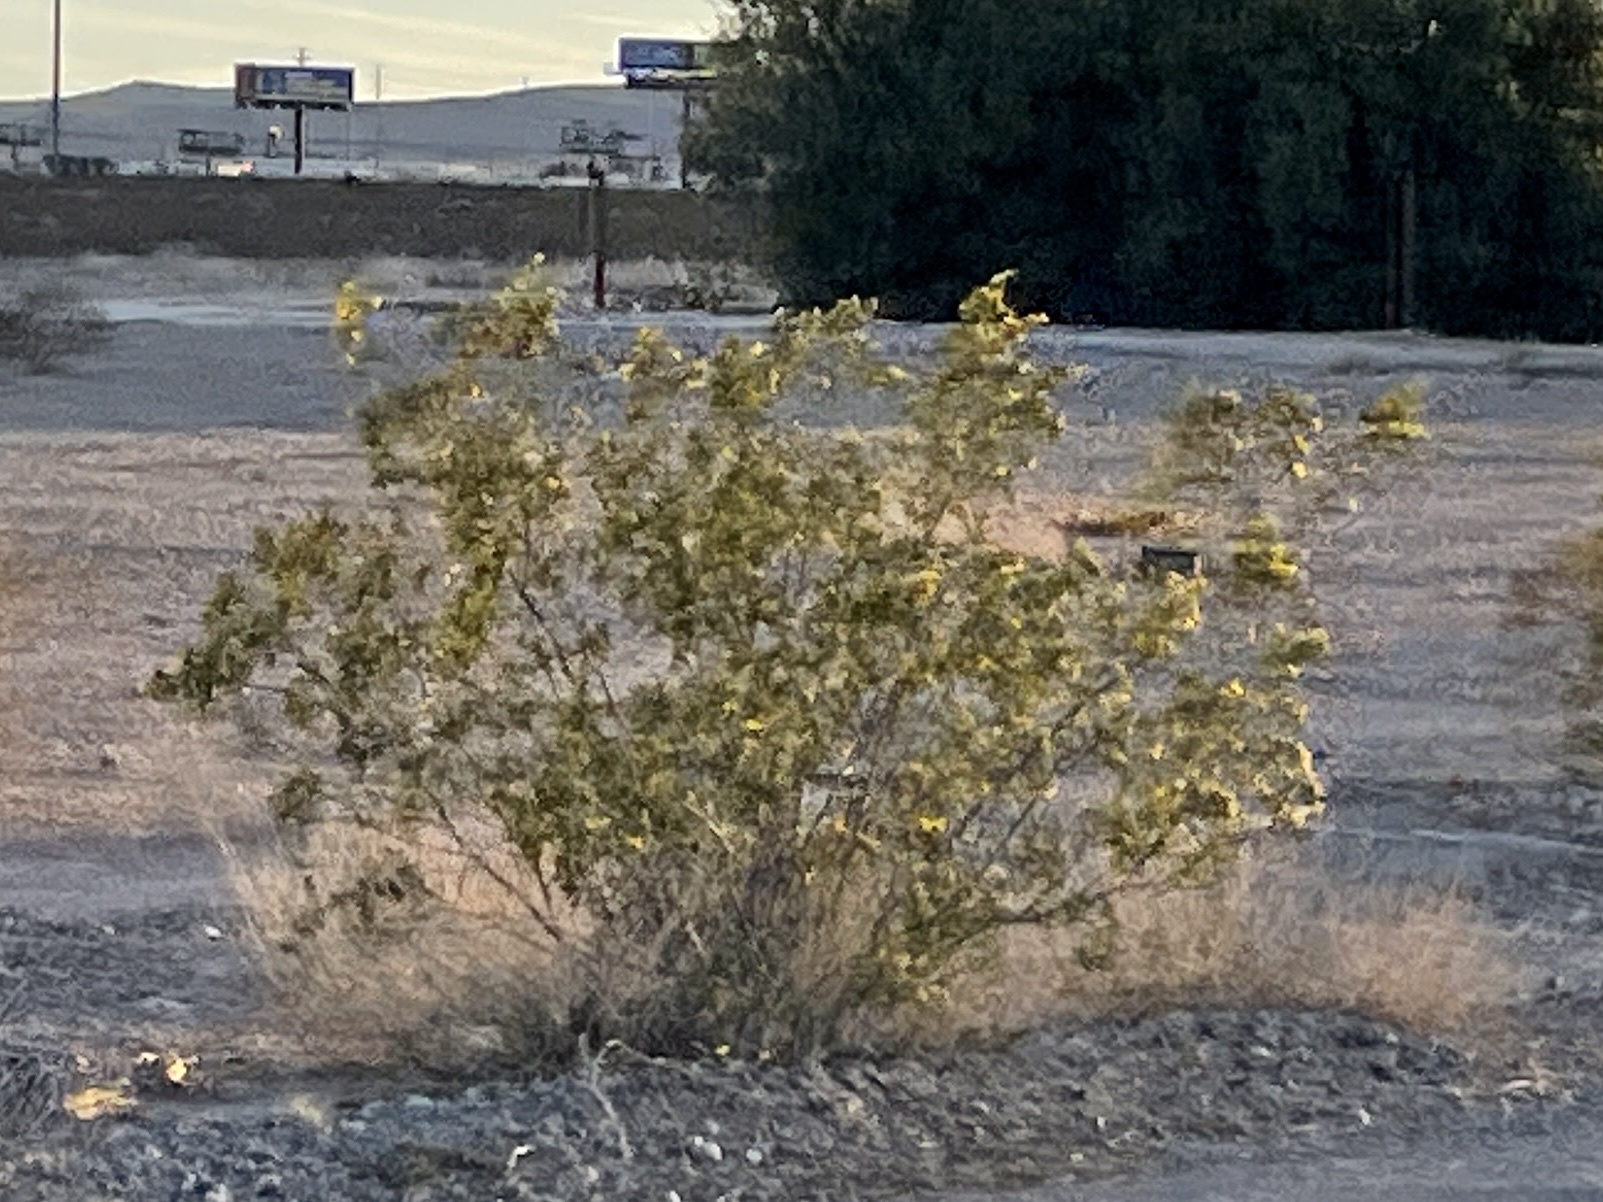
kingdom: Plantae
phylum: Tracheophyta
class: Magnoliopsida
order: Zygophyllales
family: Zygophyllaceae
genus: Larrea
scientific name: Larrea tridentata
